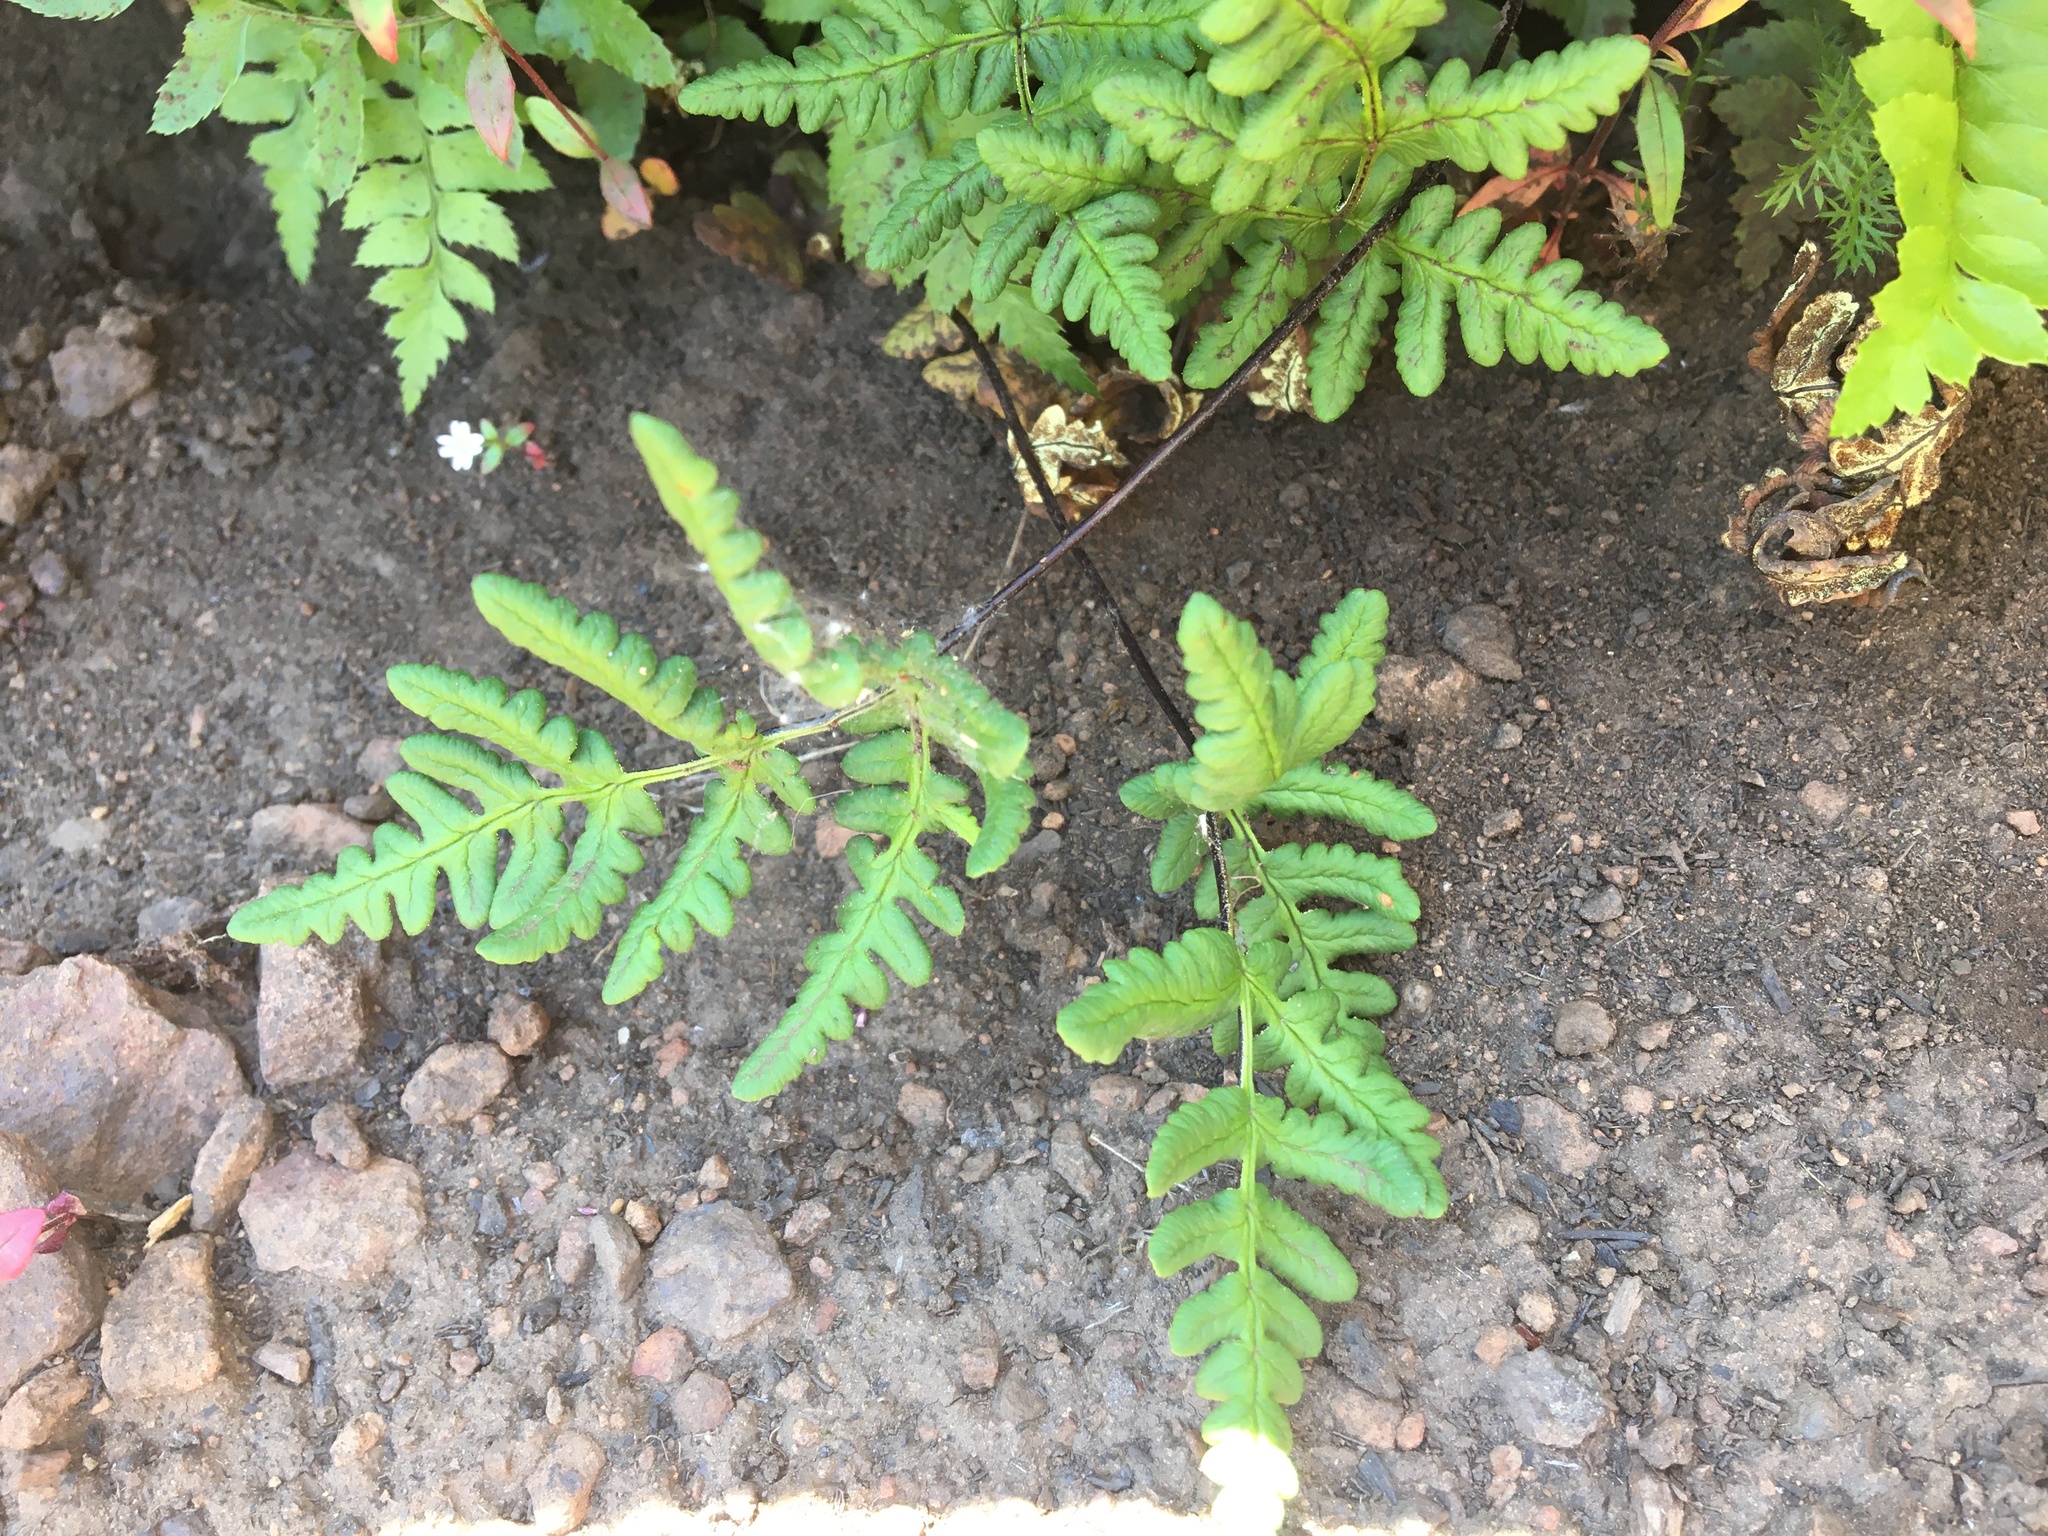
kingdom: Plantae
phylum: Tracheophyta
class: Polypodiopsida
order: Polypodiales
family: Pteridaceae
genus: Pentagramma
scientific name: Pentagramma triangularis
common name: Gold fern
